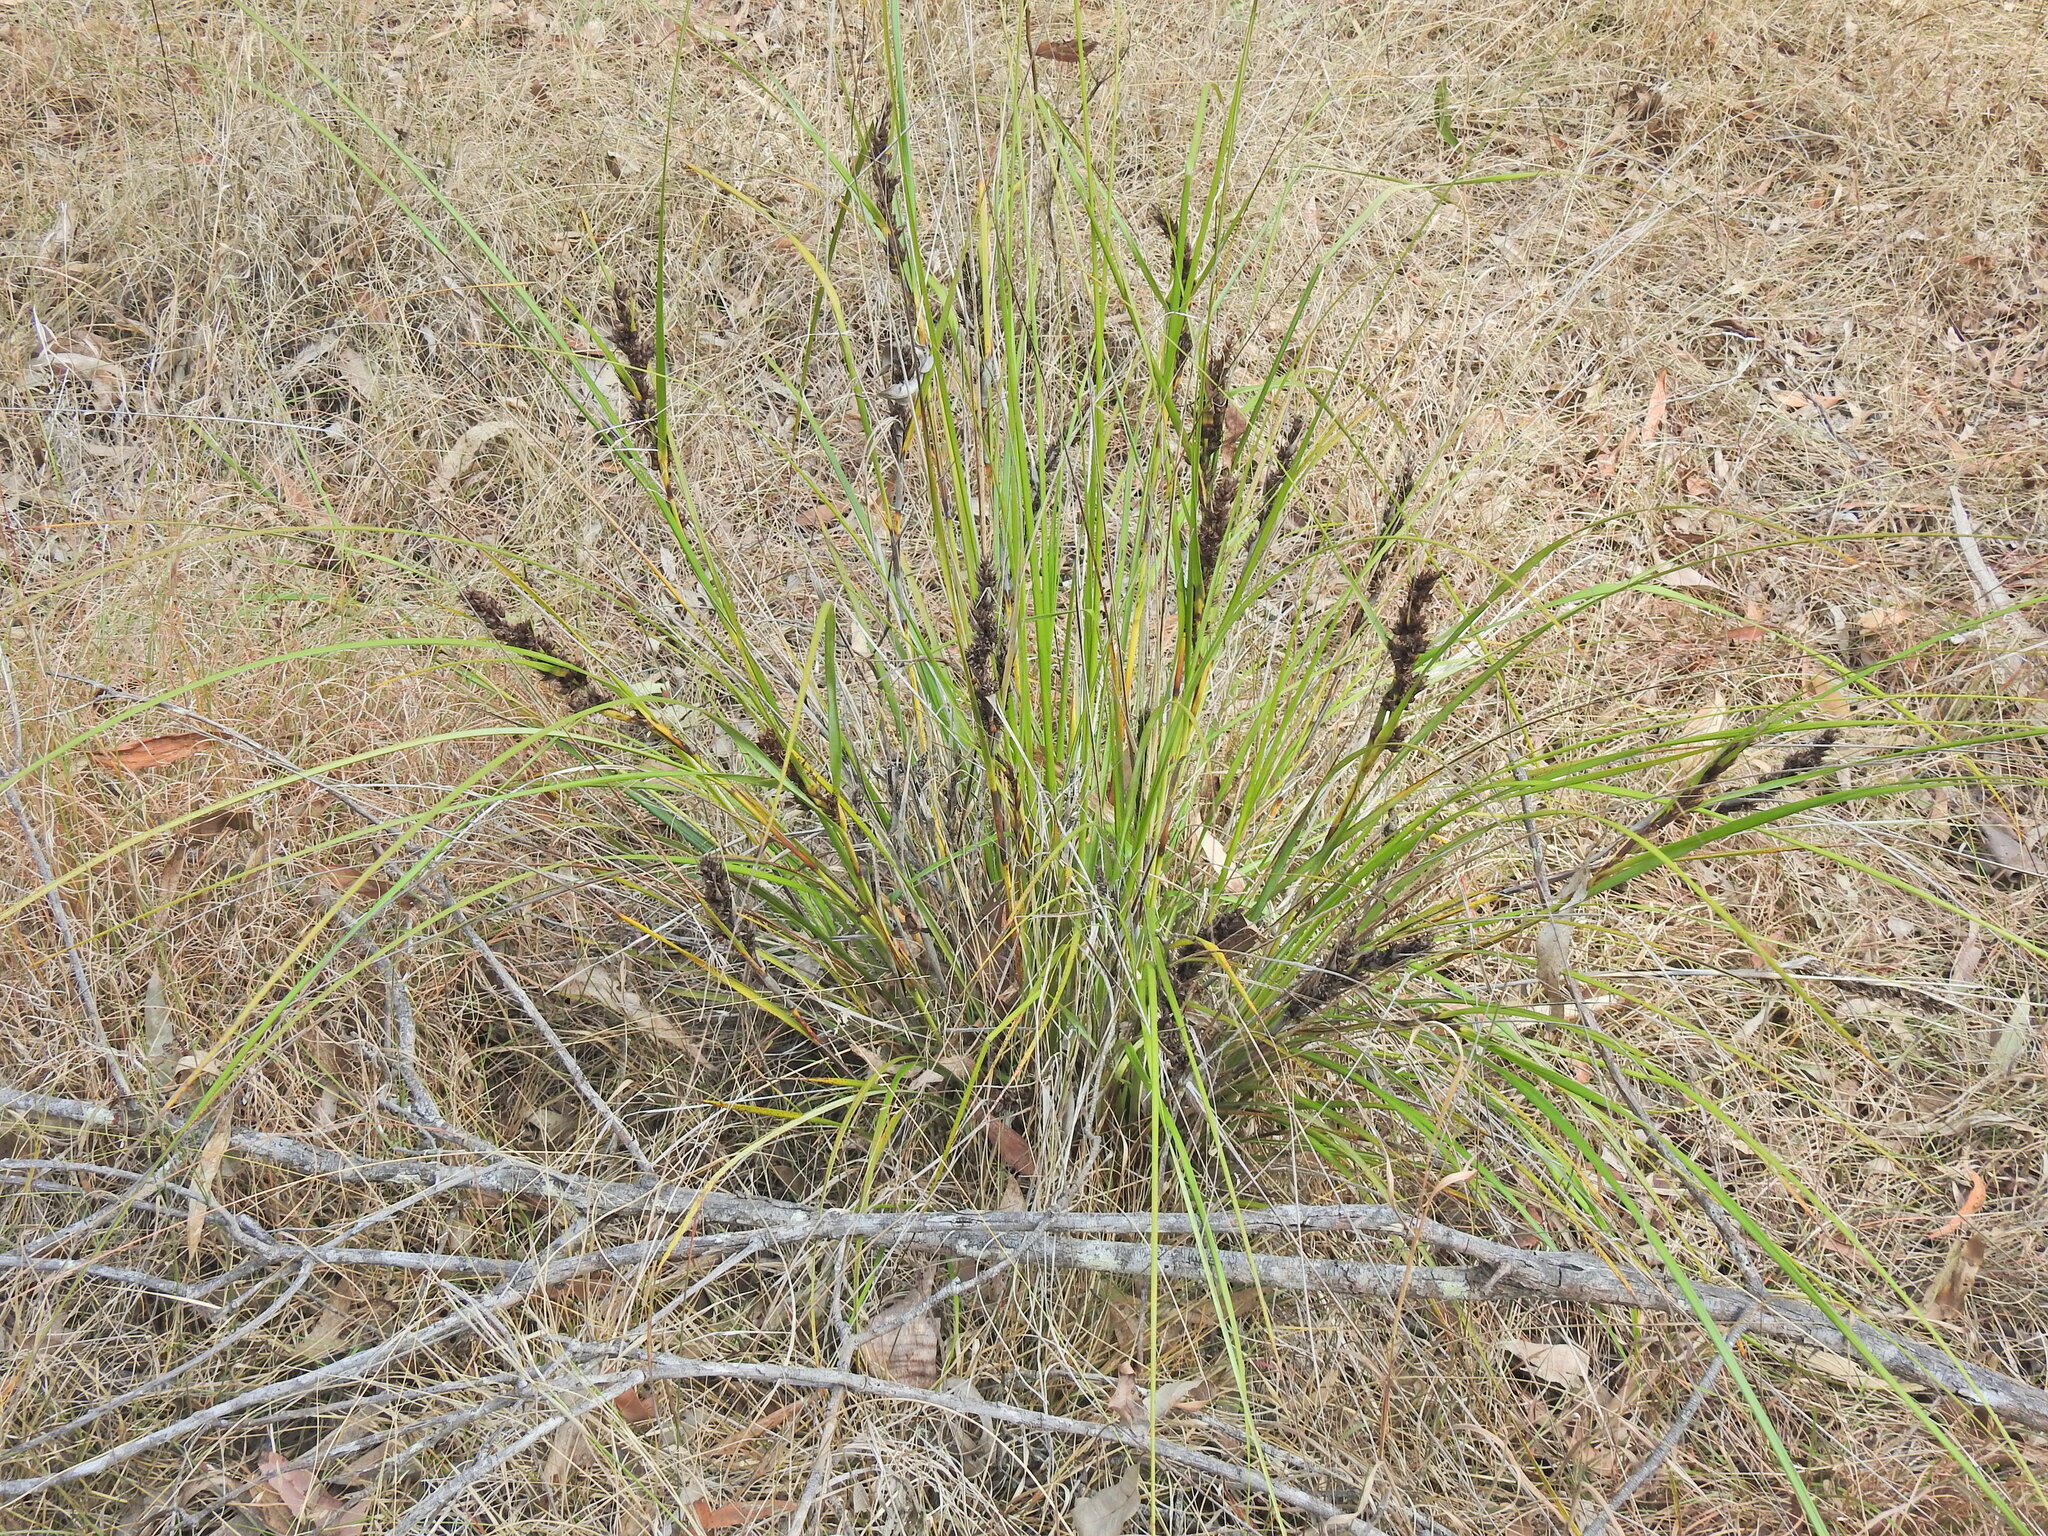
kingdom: Plantae
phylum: Tracheophyta
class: Liliopsida
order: Poales
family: Cyperaceae
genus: Gahnia
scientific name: Gahnia aspera
